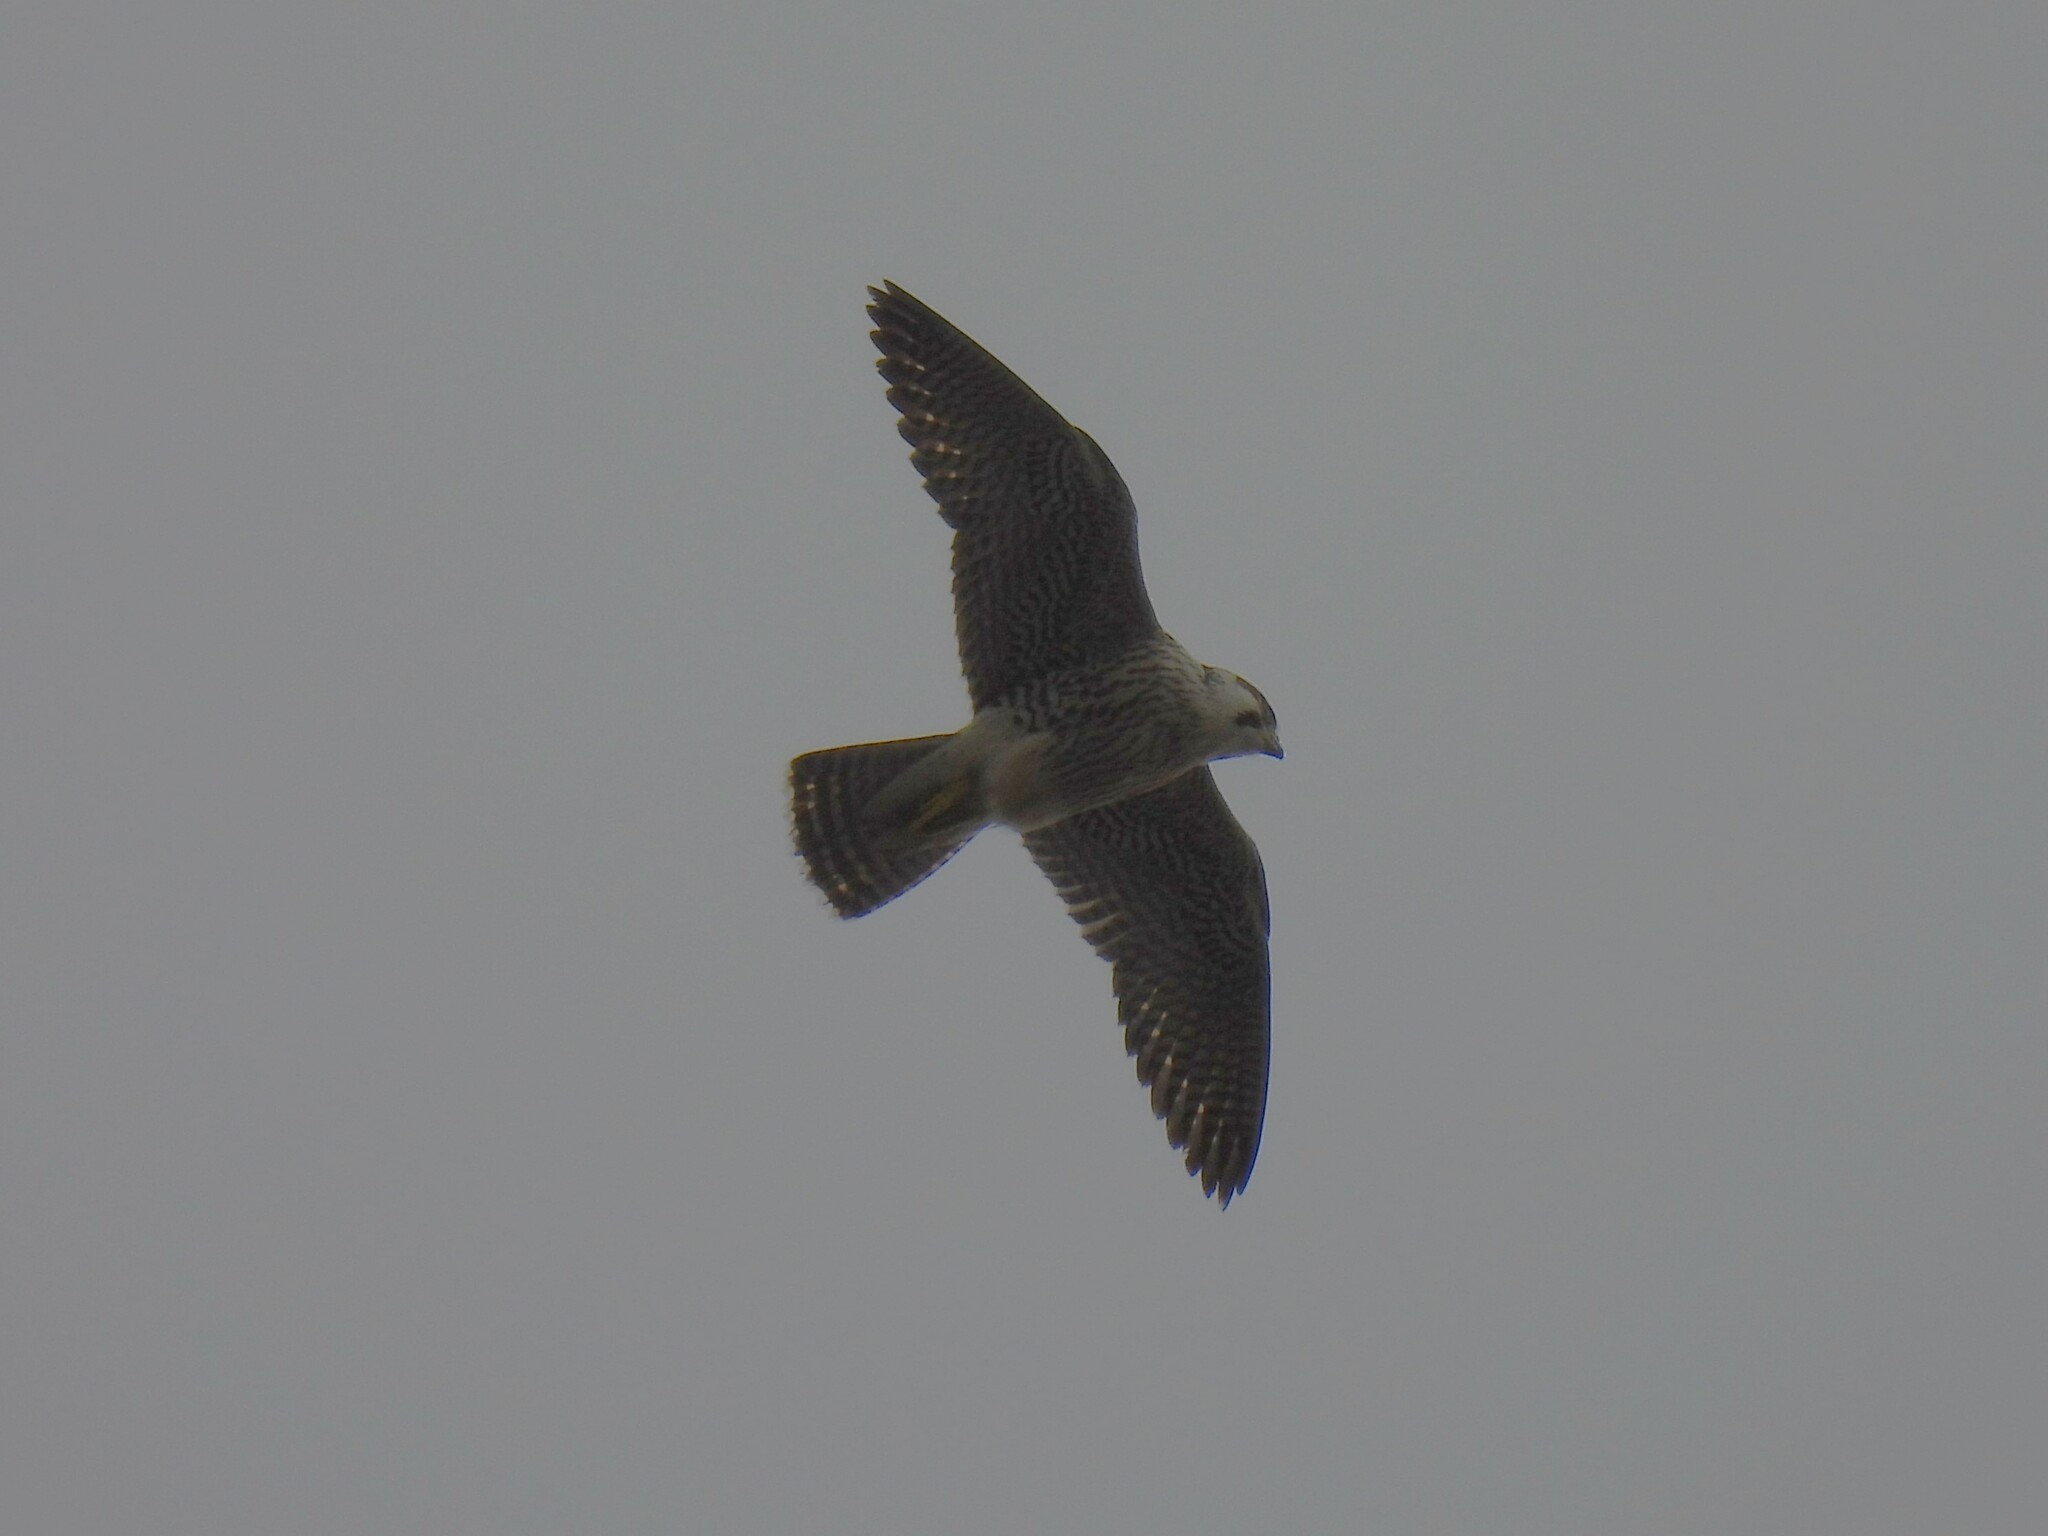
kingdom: Animalia
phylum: Chordata
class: Aves
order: Falconiformes
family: Falconidae
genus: Falco
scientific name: Falco peregrinus
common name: Peregrine falcon
